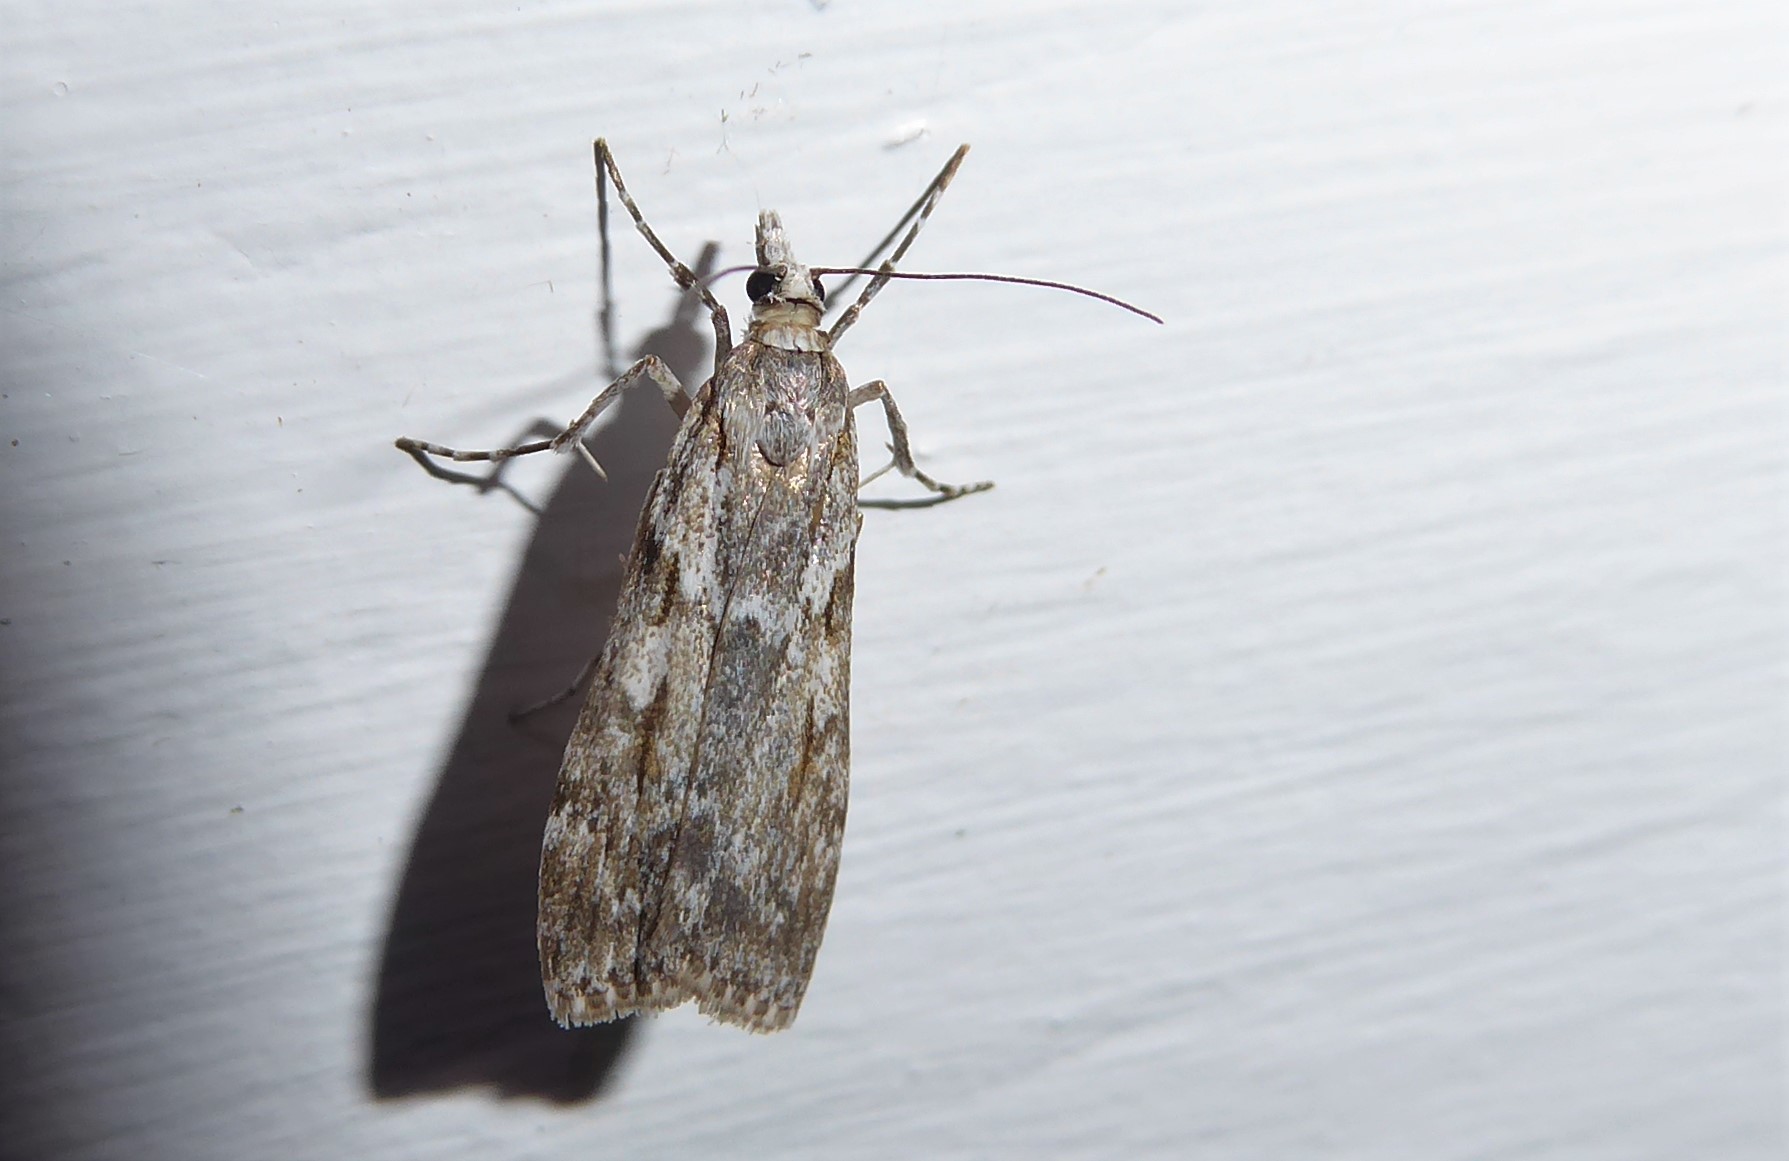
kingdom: Animalia
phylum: Arthropoda
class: Insecta
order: Lepidoptera
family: Crambidae
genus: Scoparia
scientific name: Scoparia halopis
